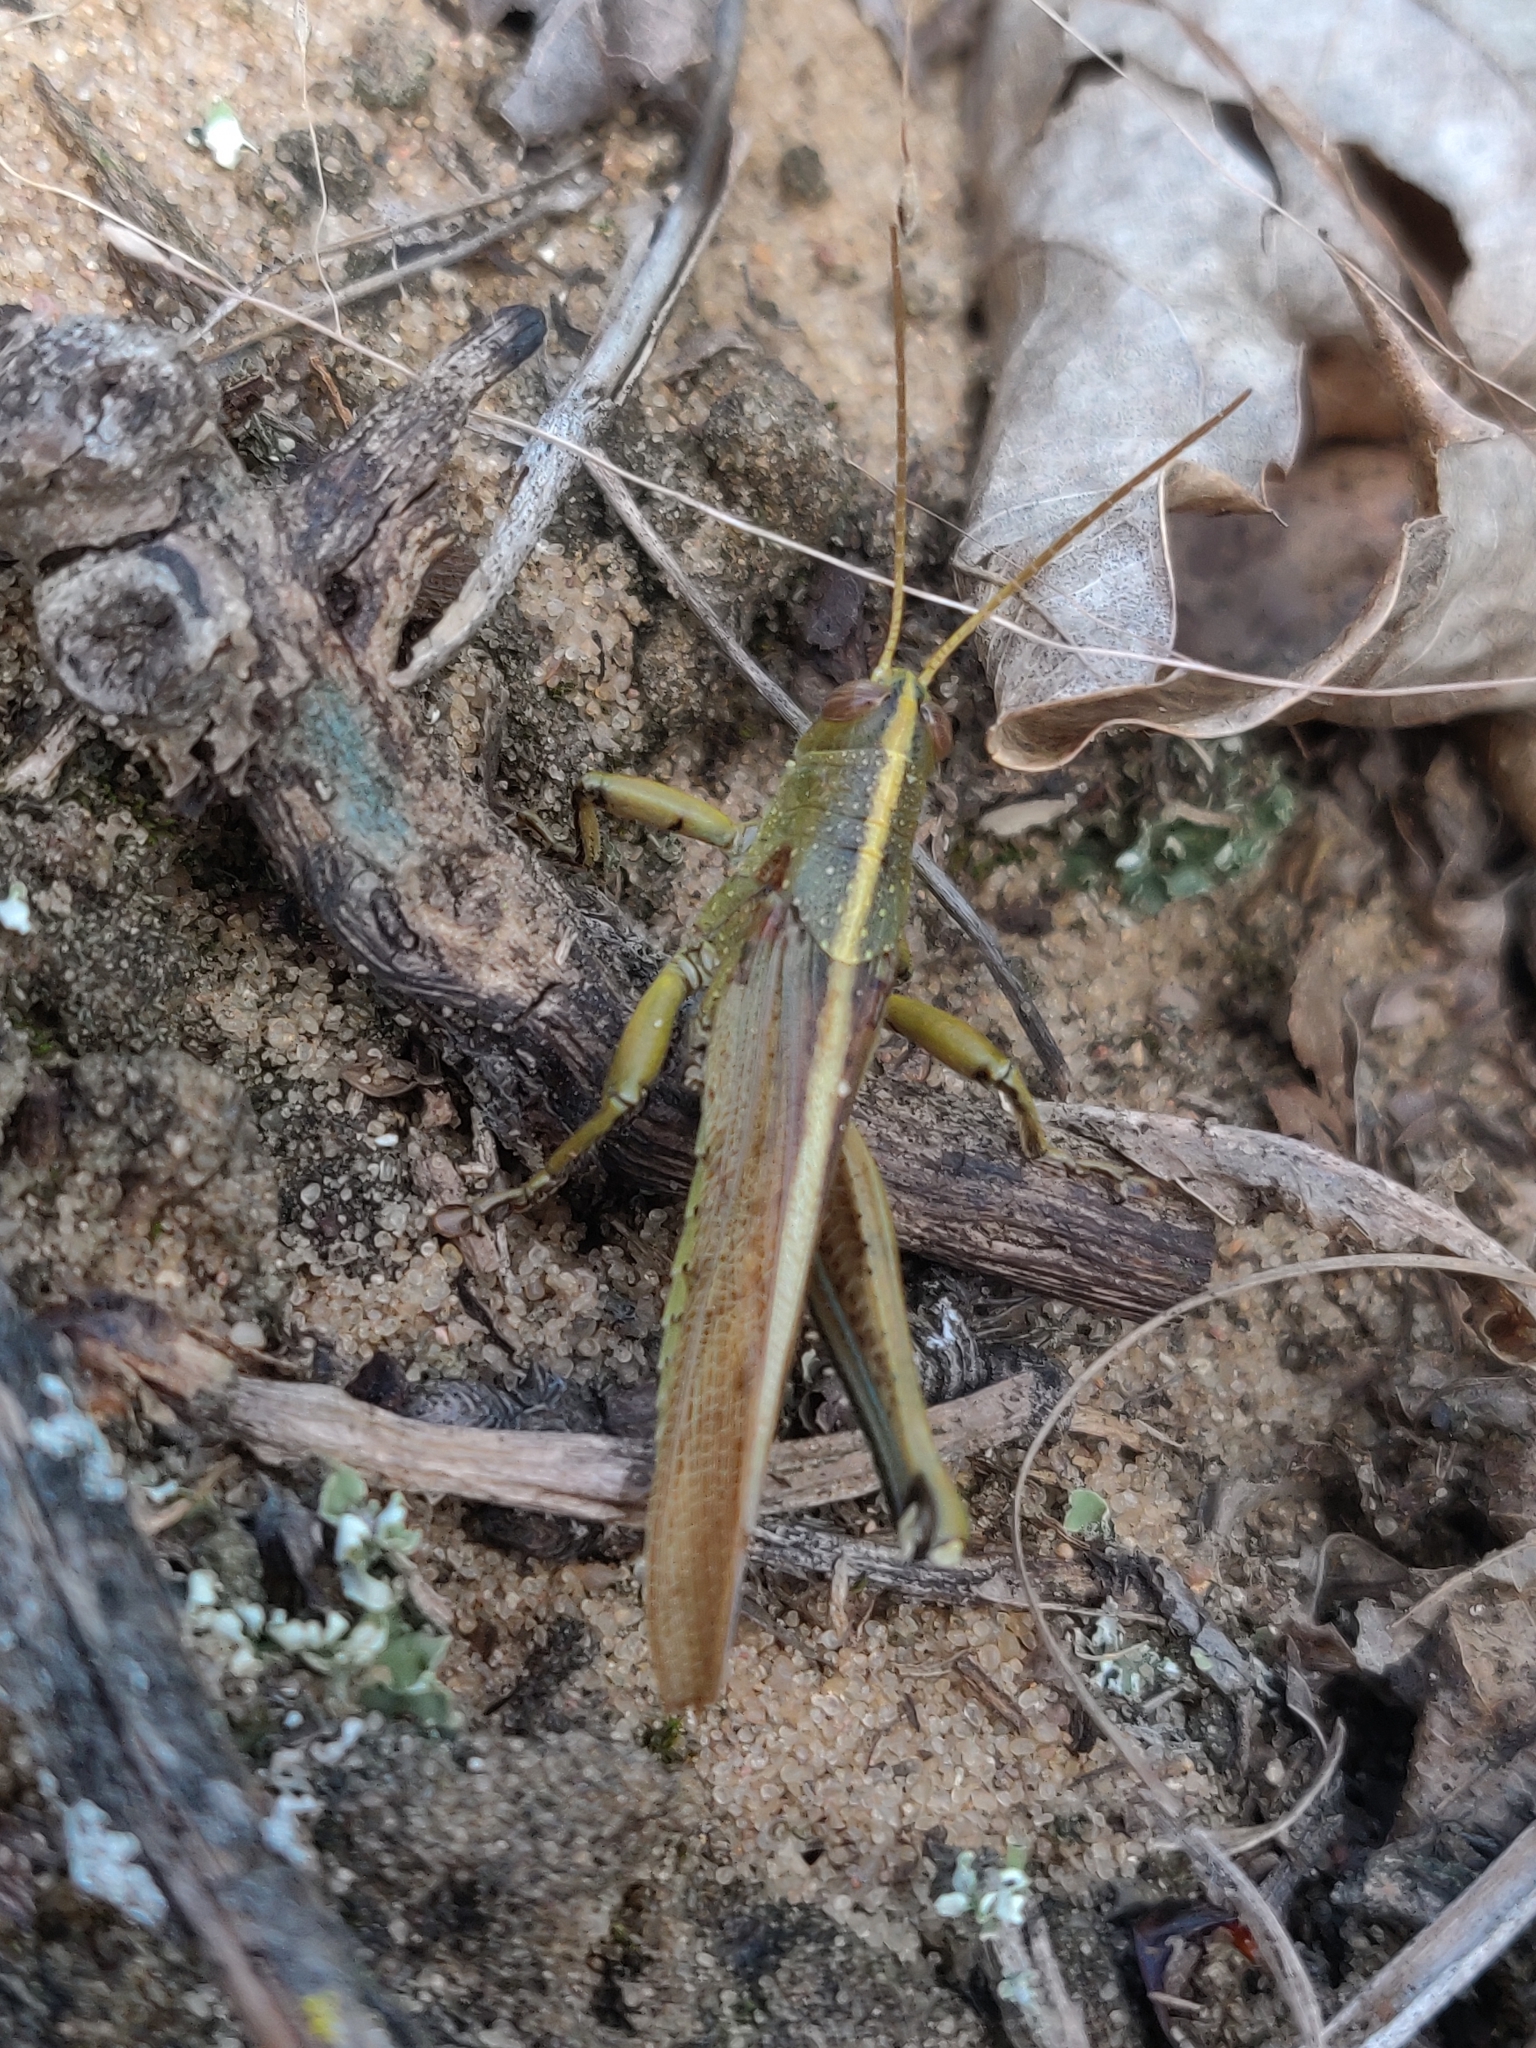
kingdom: Animalia
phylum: Arthropoda
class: Insecta
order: Orthoptera
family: Acrididae
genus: Schistocerca
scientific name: Schistocerca lineata
